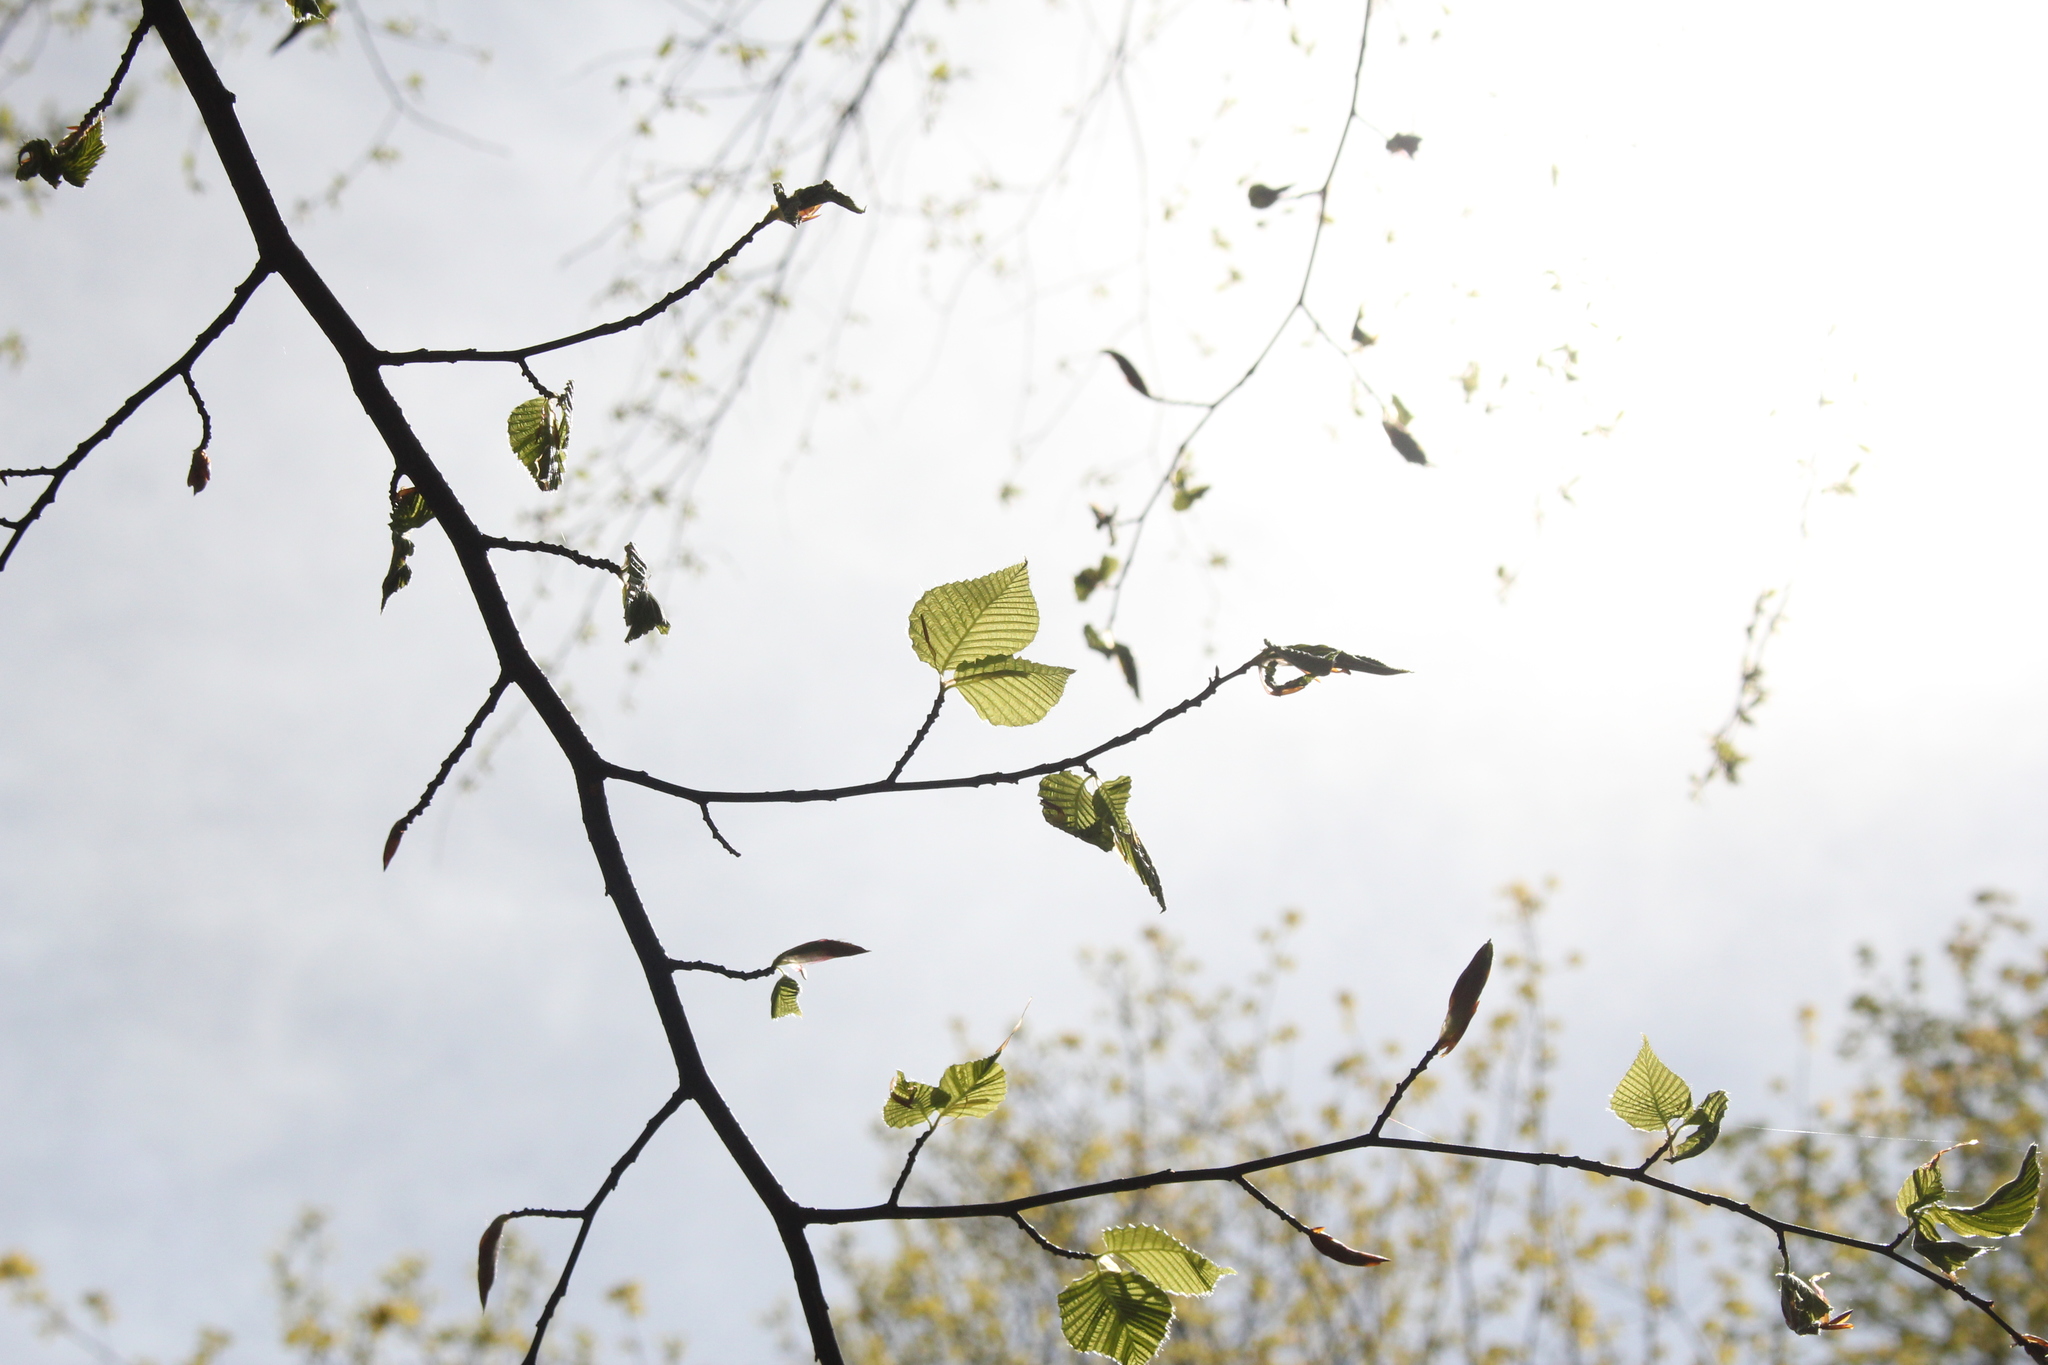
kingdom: Plantae
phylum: Tracheophyta
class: Magnoliopsida
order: Fagales
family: Betulaceae
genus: Carpinus
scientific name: Carpinus caroliniana
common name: American hornbeam
